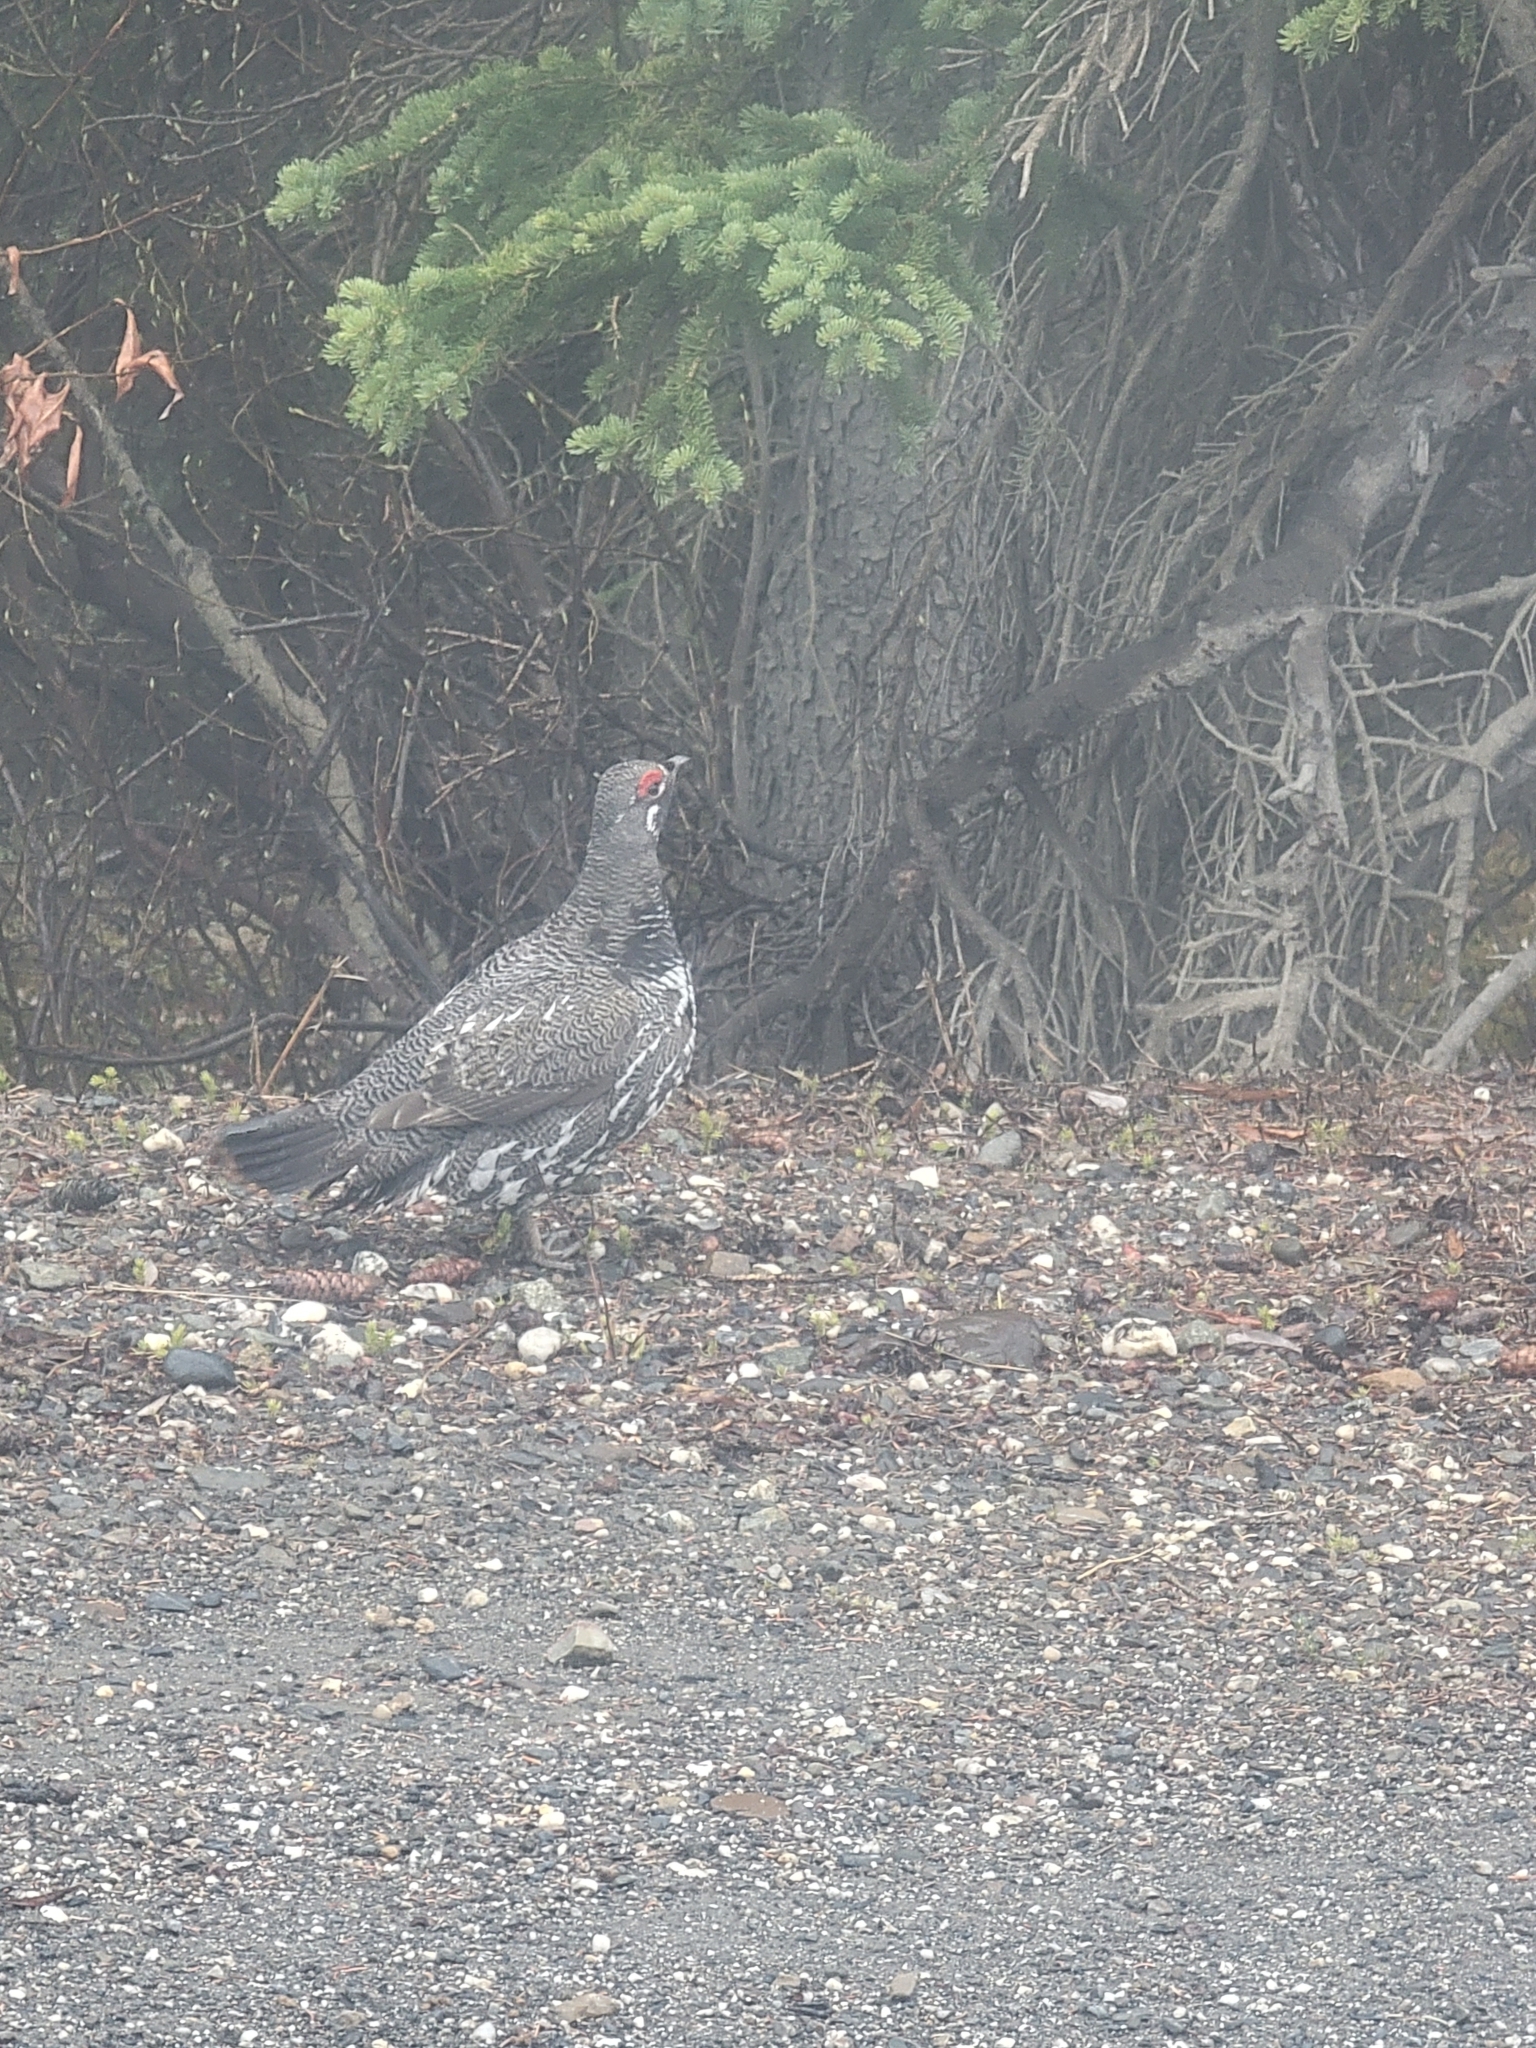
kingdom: Animalia
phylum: Chordata
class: Aves
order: Galliformes
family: Phasianidae
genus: Canachites
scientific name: Canachites canadensis
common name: Spruce grouse
